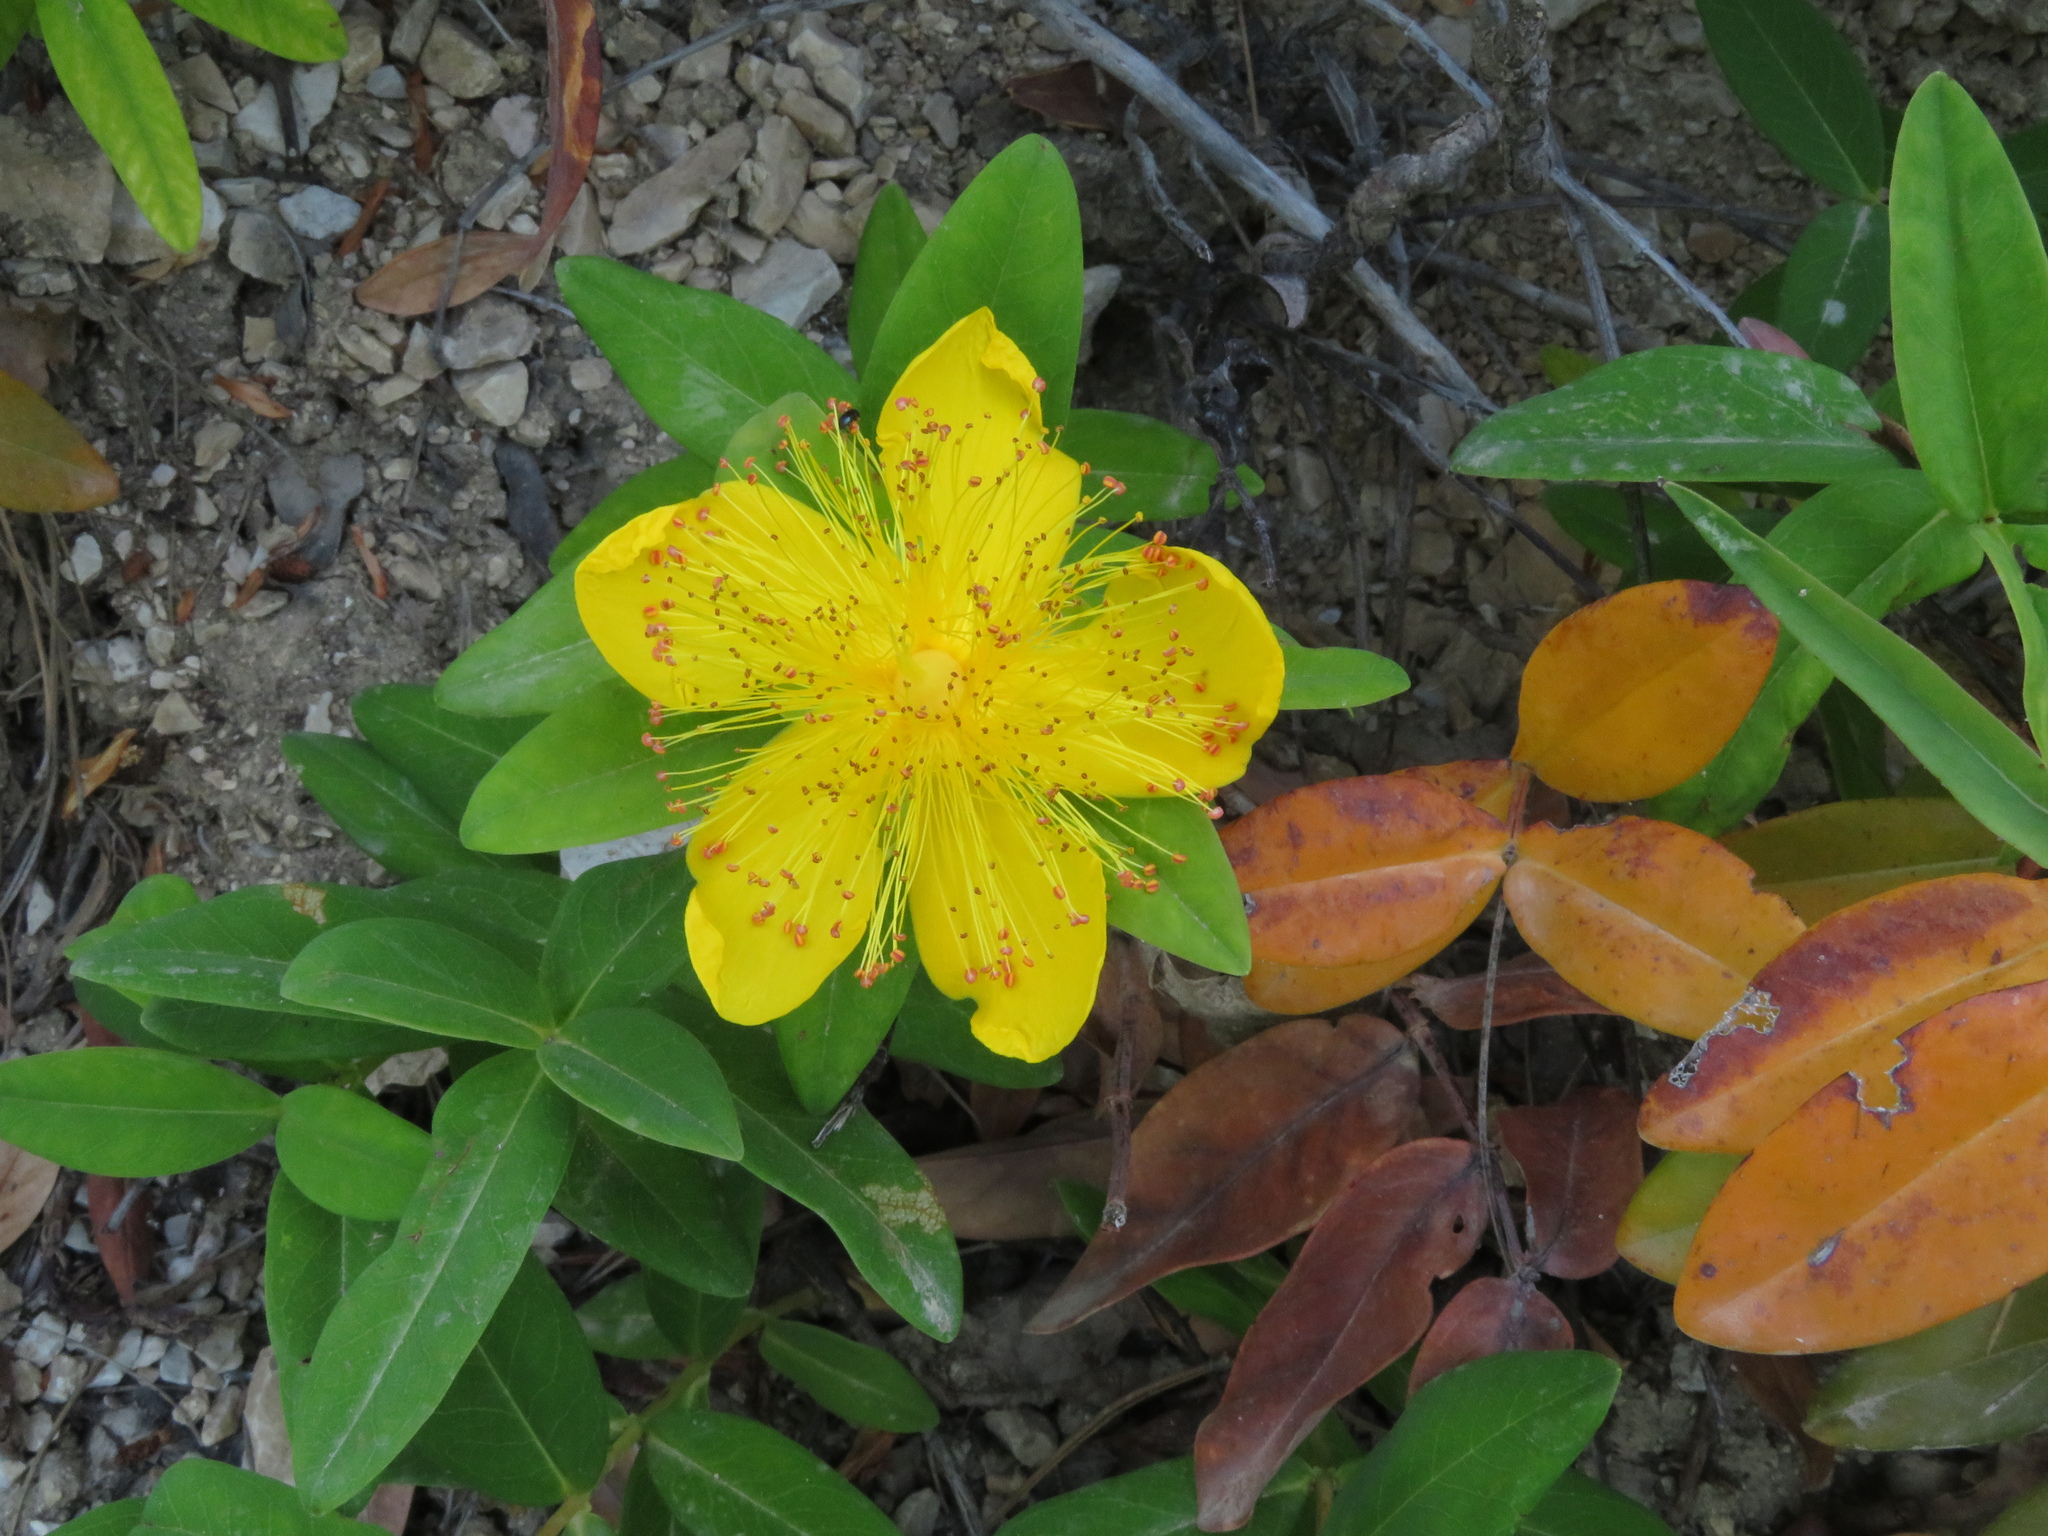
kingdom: Plantae
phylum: Tracheophyta
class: Magnoliopsida
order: Malpighiales
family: Hypericaceae
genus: Hypericum
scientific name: Hypericum calycinum
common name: Rose-of-sharon
